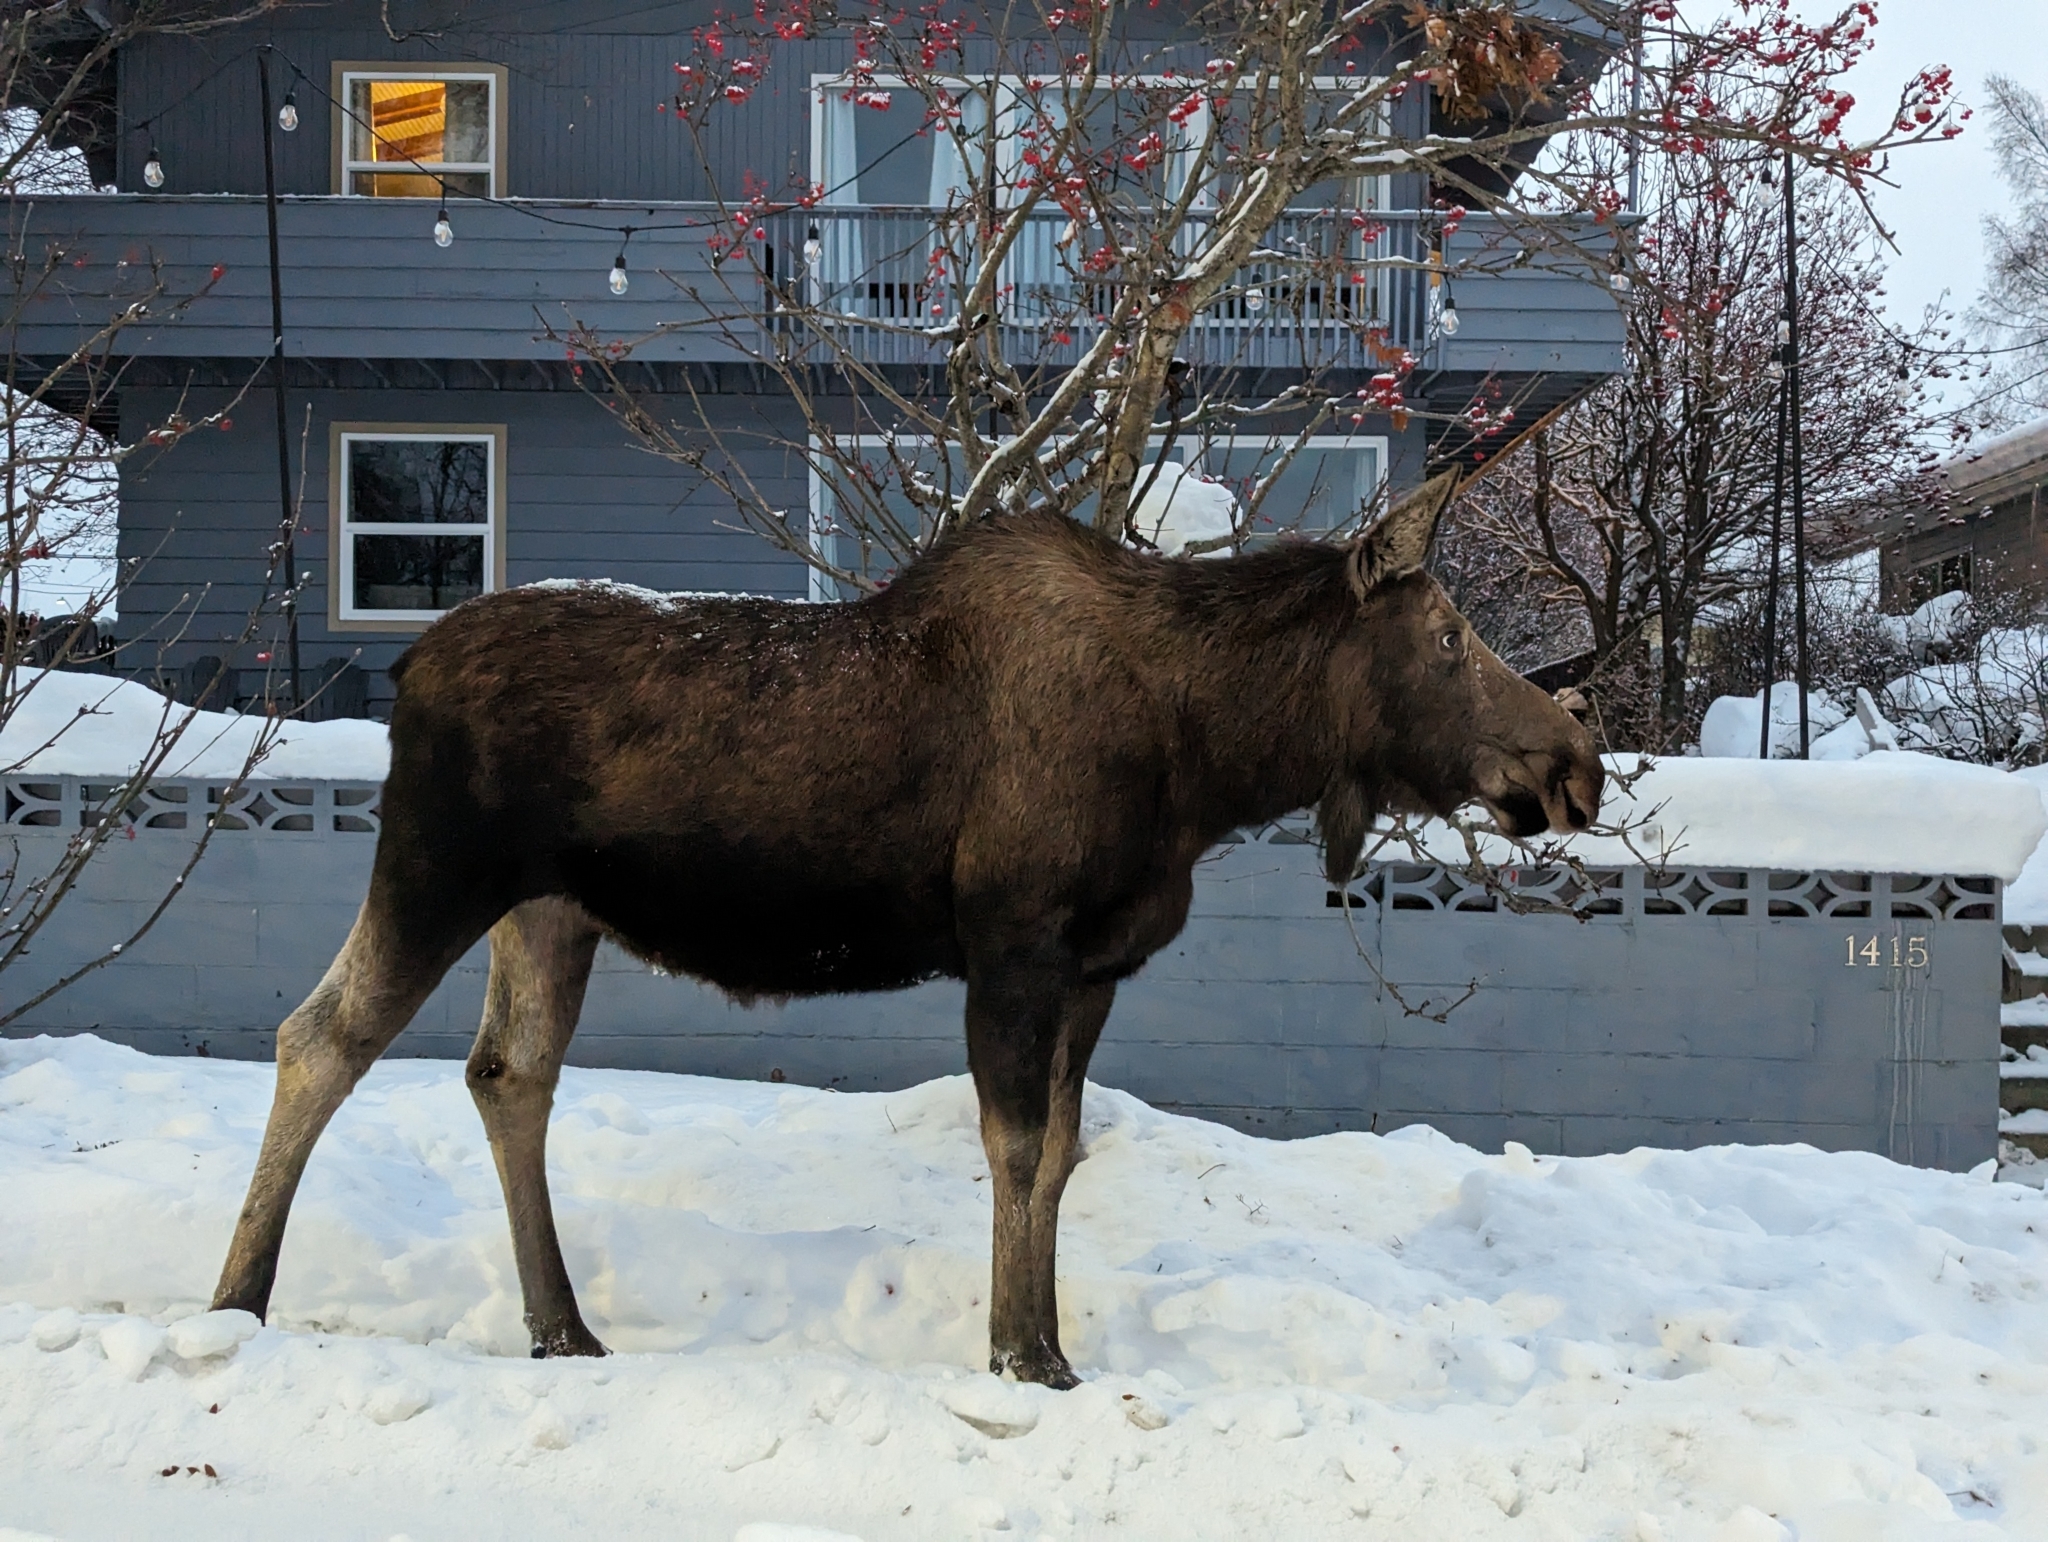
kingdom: Animalia
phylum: Chordata
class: Mammalia
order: Artiodactyla
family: Cervidae
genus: Alces
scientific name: Alces alces
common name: Moose
